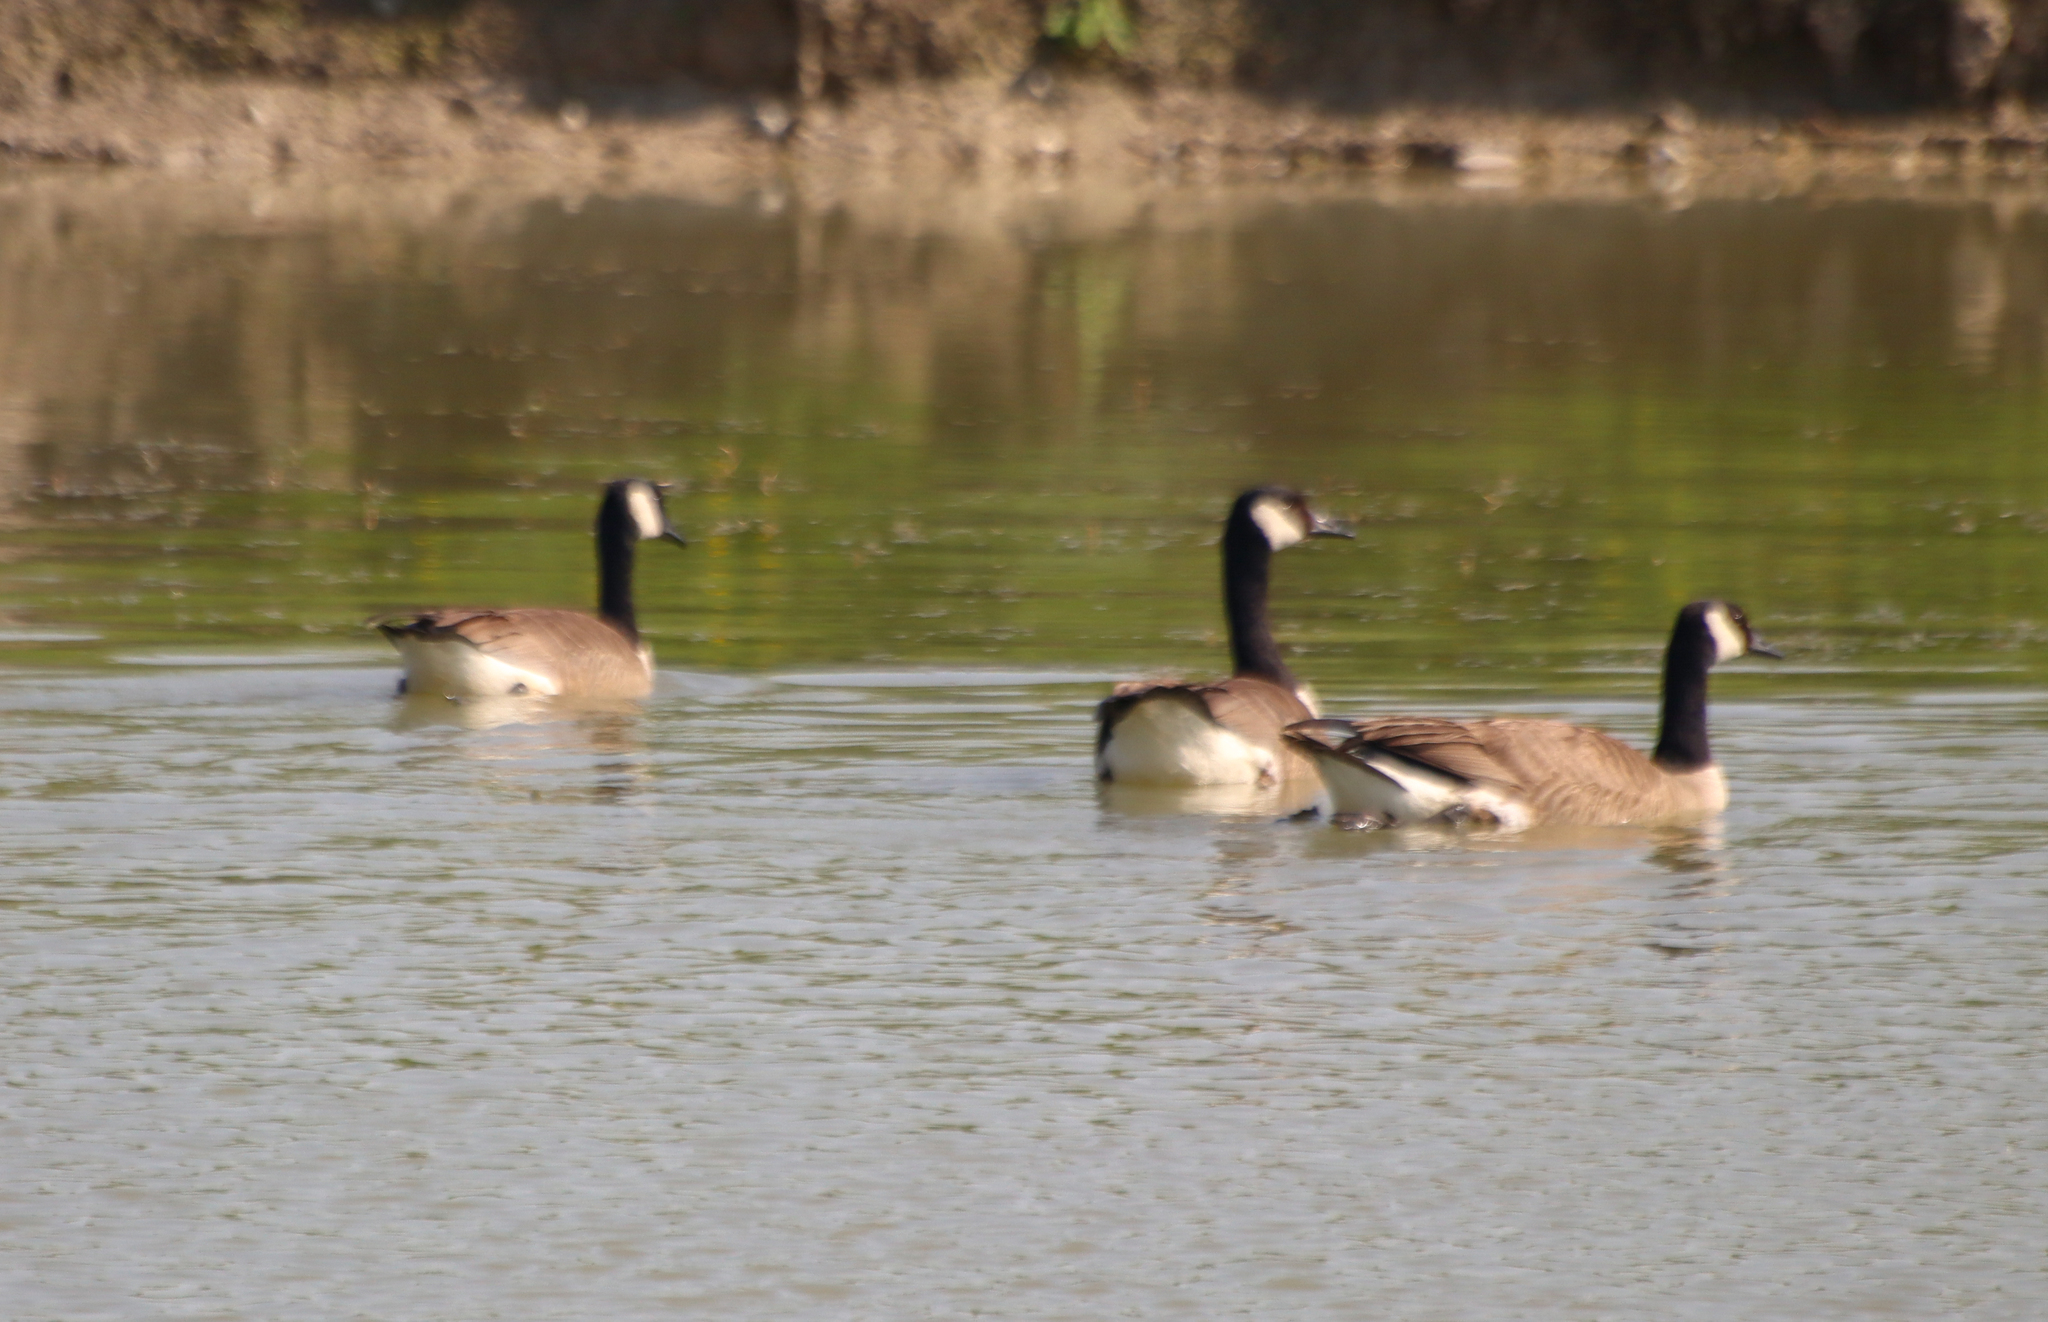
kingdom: Animalia
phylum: Chordata
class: Aves
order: Anseriformes
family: Anatidae
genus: Branta
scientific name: Branta canadensis
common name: Canada goose
